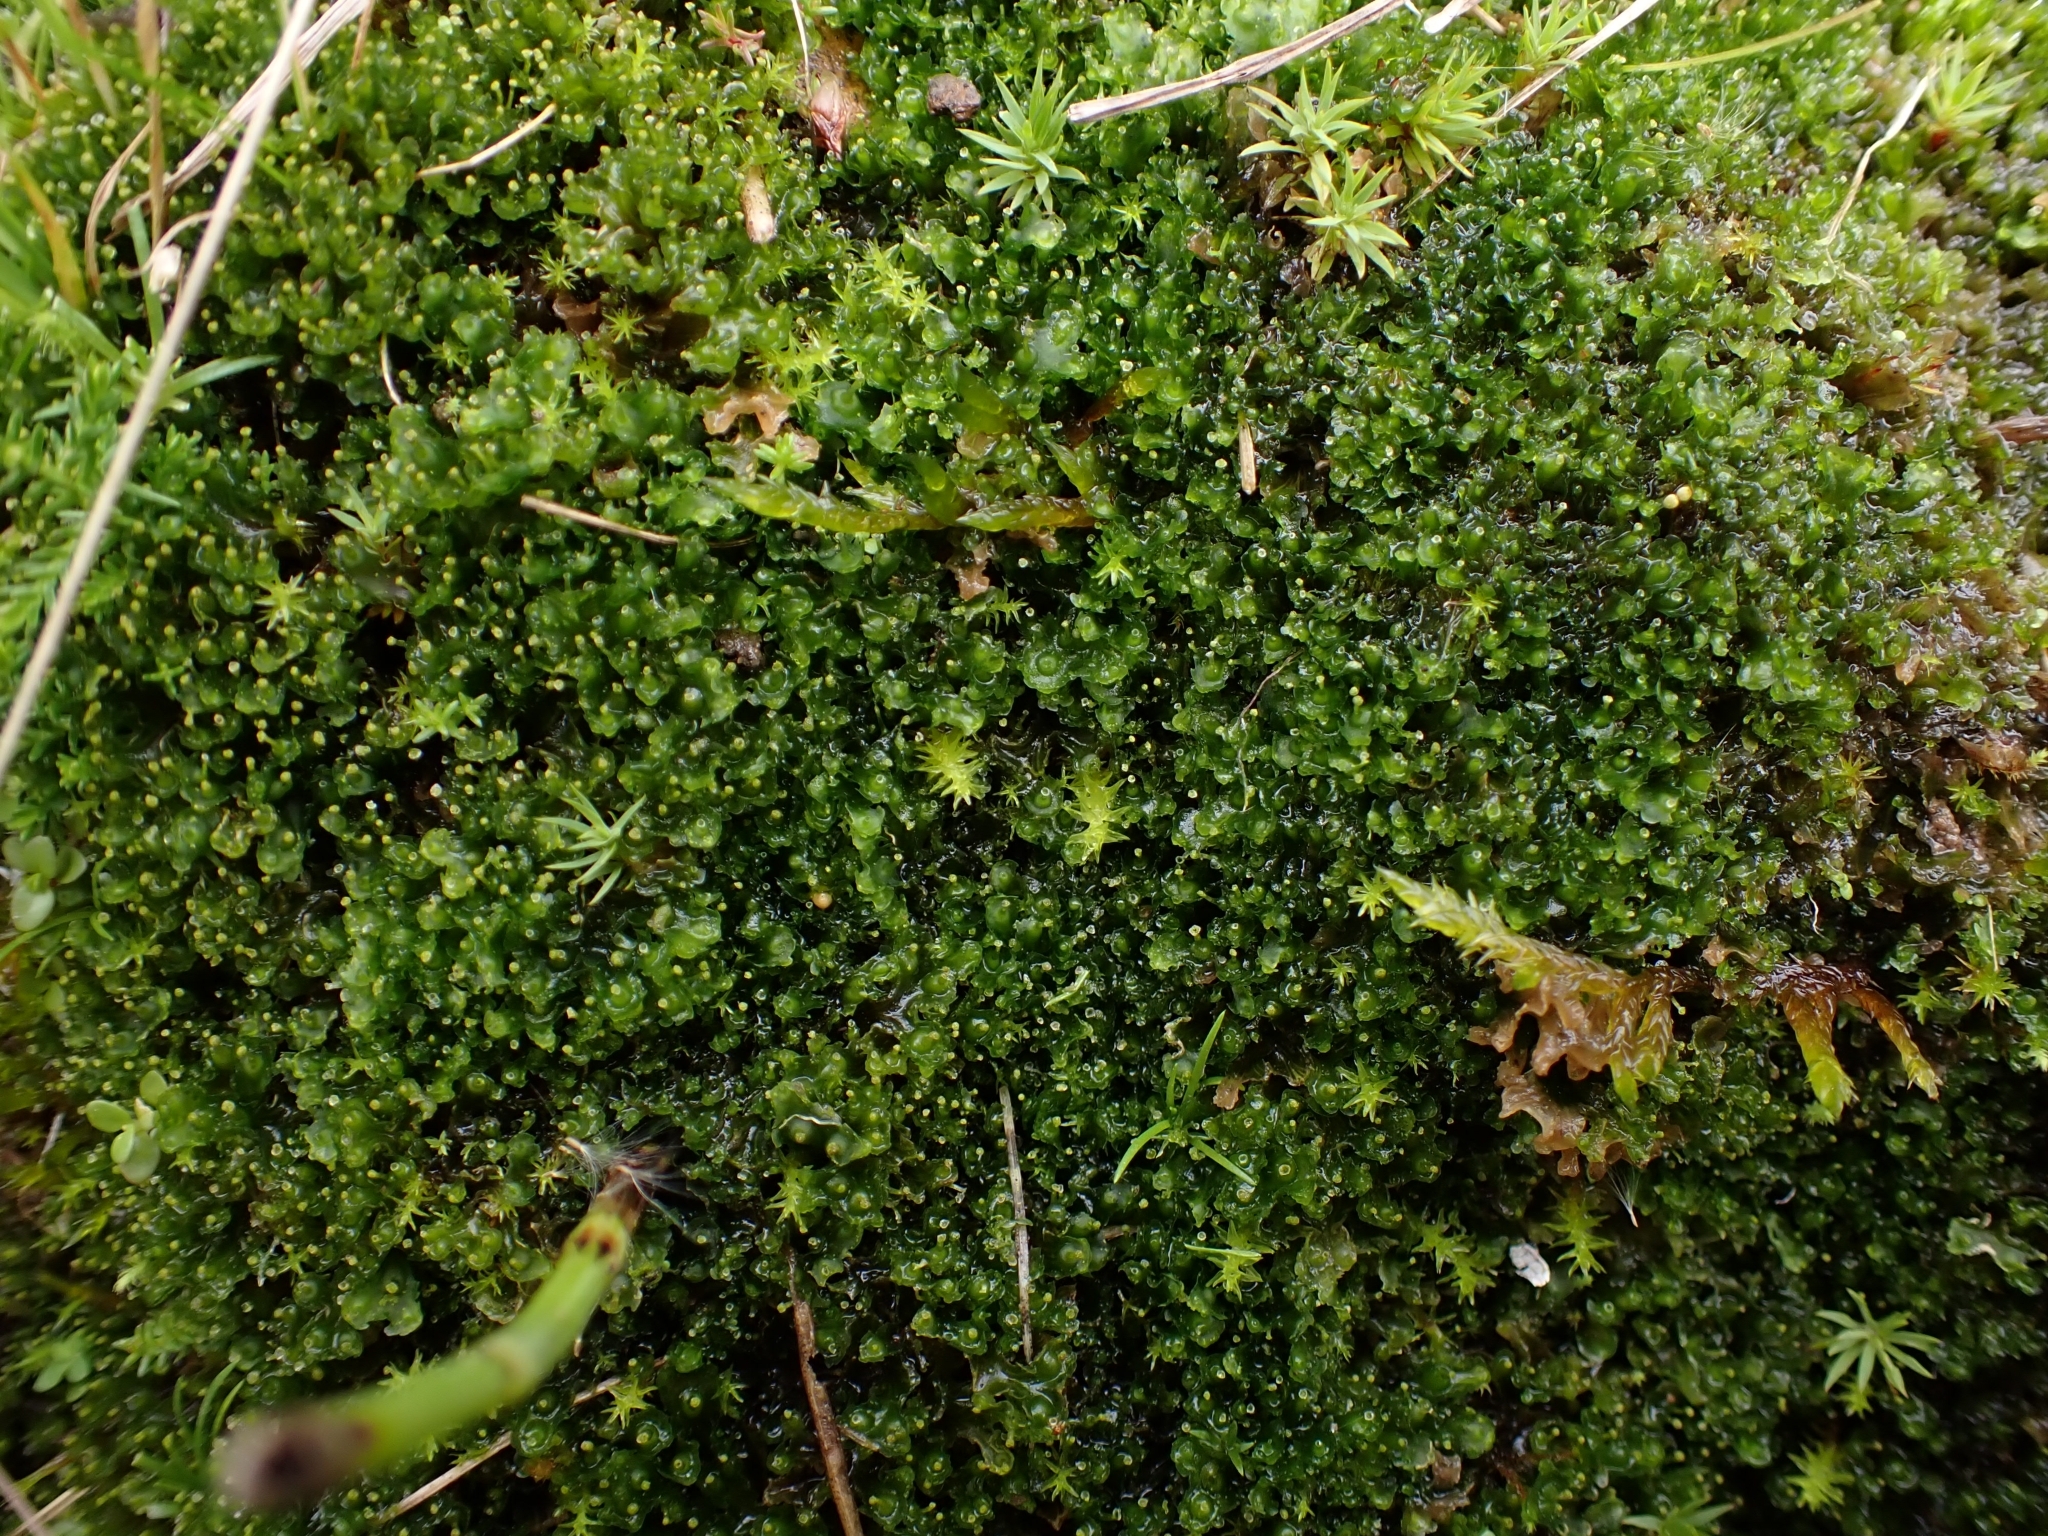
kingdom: Plantae
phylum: Marchantiophyta
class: Marchantiopsida
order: Blasiales
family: Blasiaceae
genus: Blasia
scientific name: Blasia pusilla
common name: Common kettlewort
